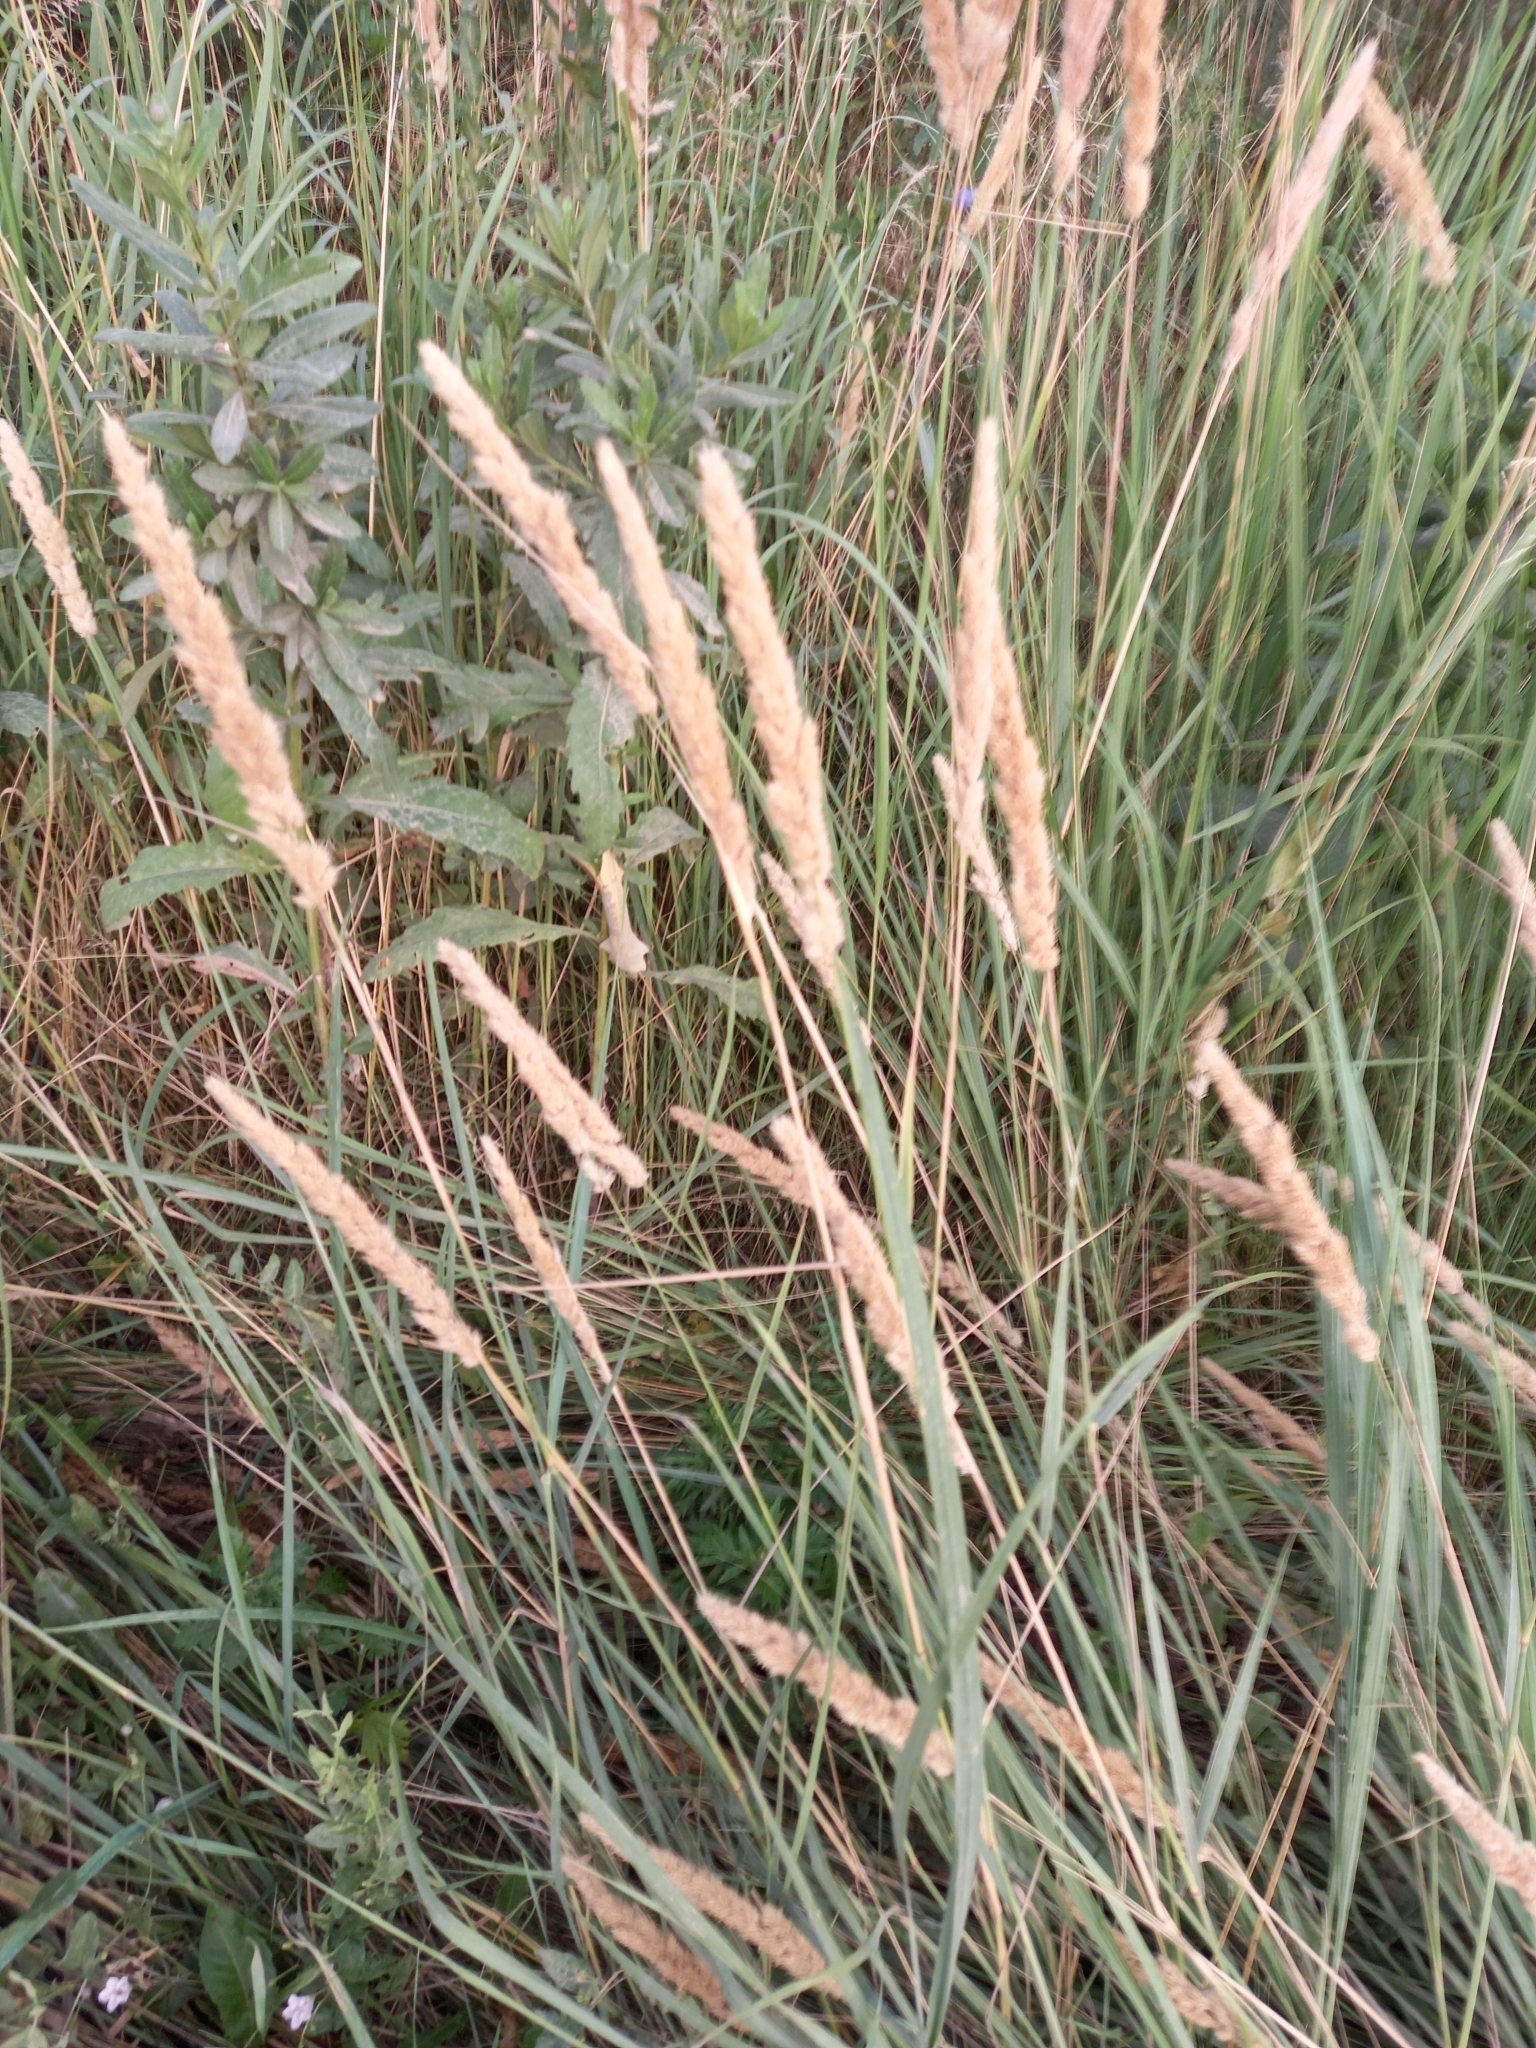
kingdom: Plantae
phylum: Tracheophyta
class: Liliopsida
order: Poales
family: Poaceae
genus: Calamagrostis
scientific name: Calamagrostis epigejos
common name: Wood small-reed
